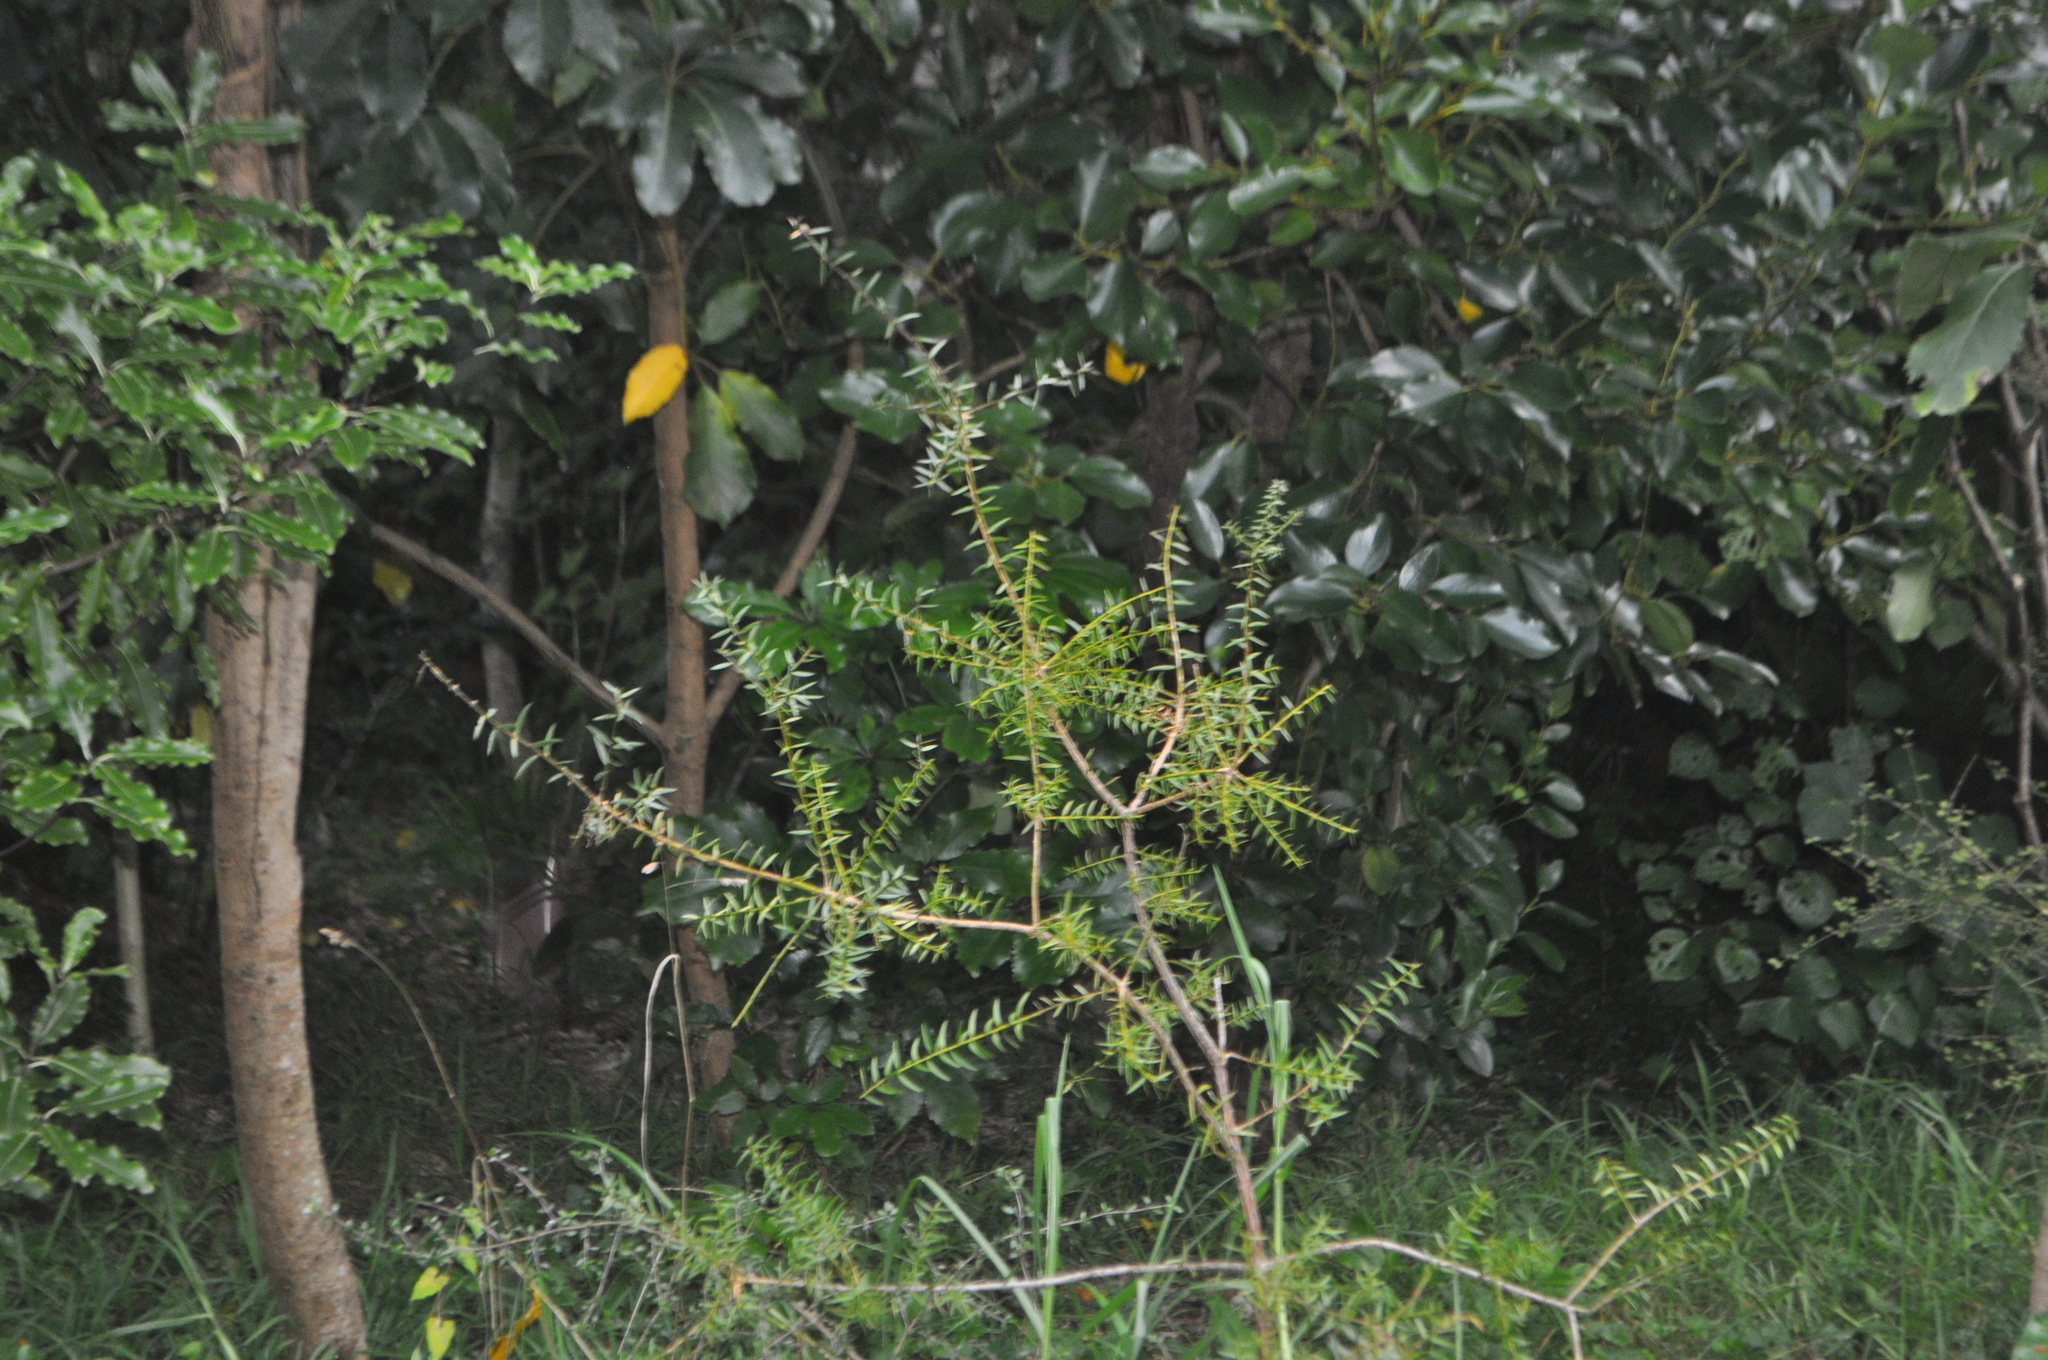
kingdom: Plantae
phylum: Tracheophyta
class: Pinopsida
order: Pinales
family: Podocarpaceae
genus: Podocarpus
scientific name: Podocarpus totara
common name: Totara
